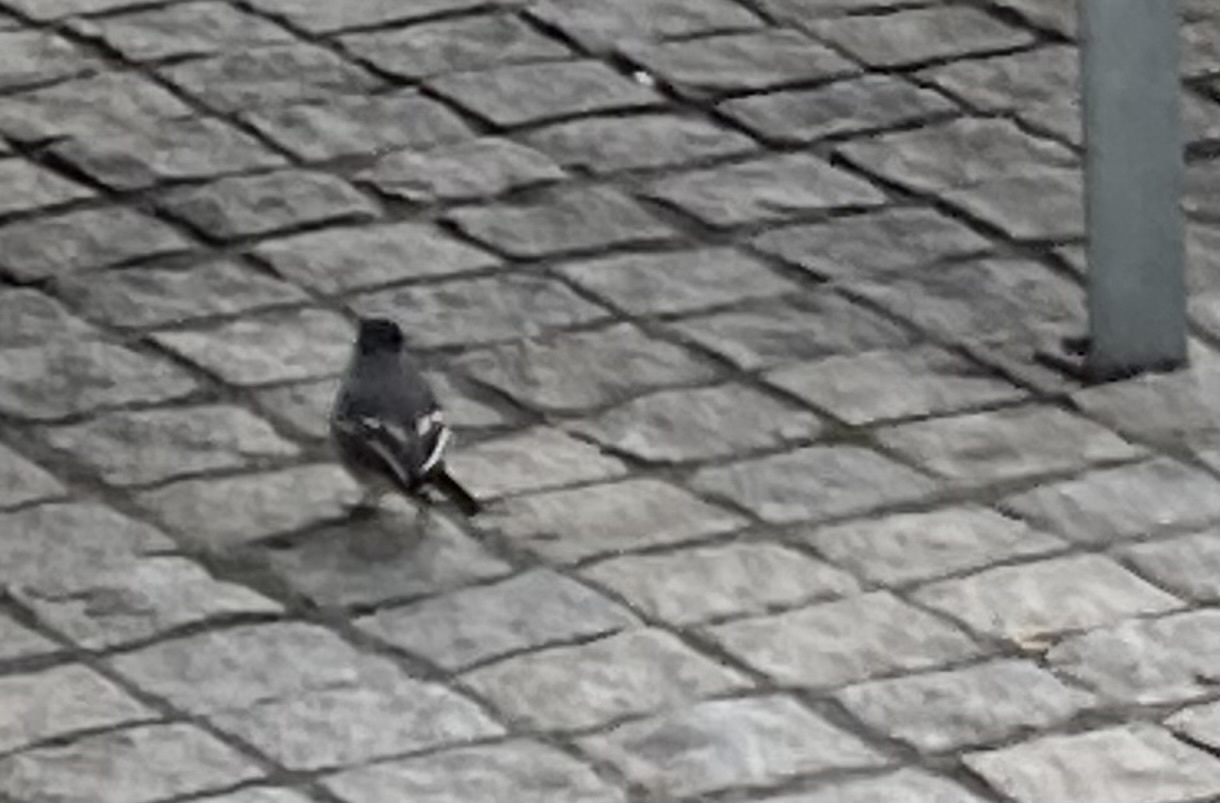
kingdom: Animalia
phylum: Chordata
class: Aves
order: Passeriformes
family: Motacillidae
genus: Motacilla
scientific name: Motacilla alba
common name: White wagtail
